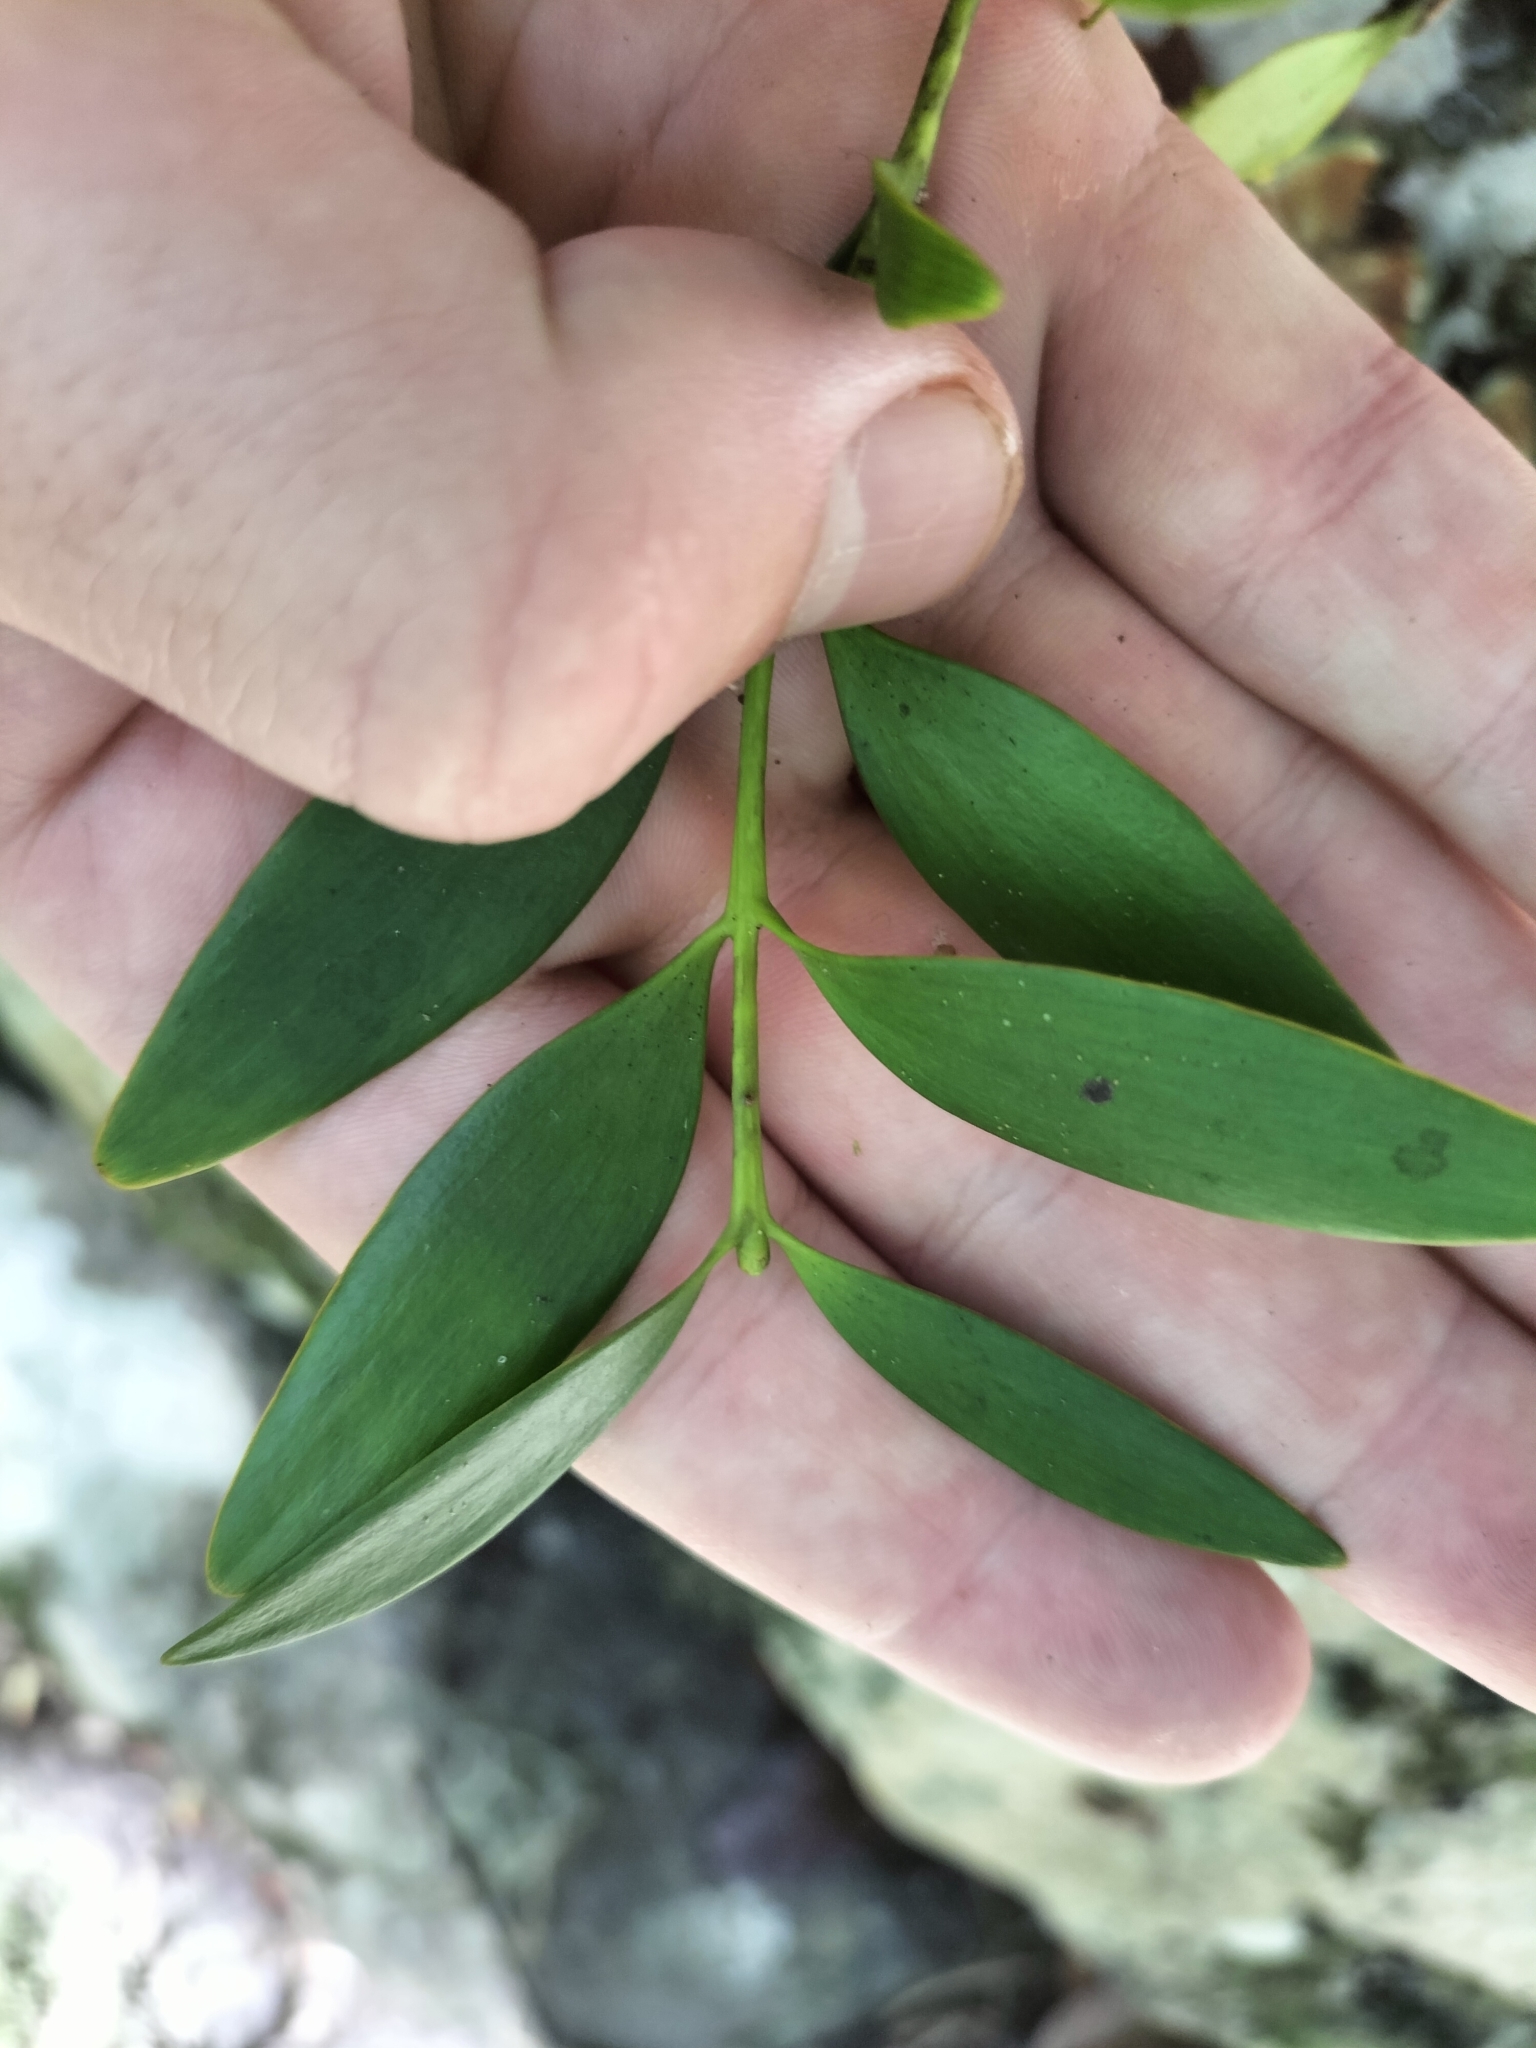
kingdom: Plantae
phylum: Tracheophyta
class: Pinopsida
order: Pinales
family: Araucariaceae
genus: Agathis
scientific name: Agathis microstachya
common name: Bull kauri
